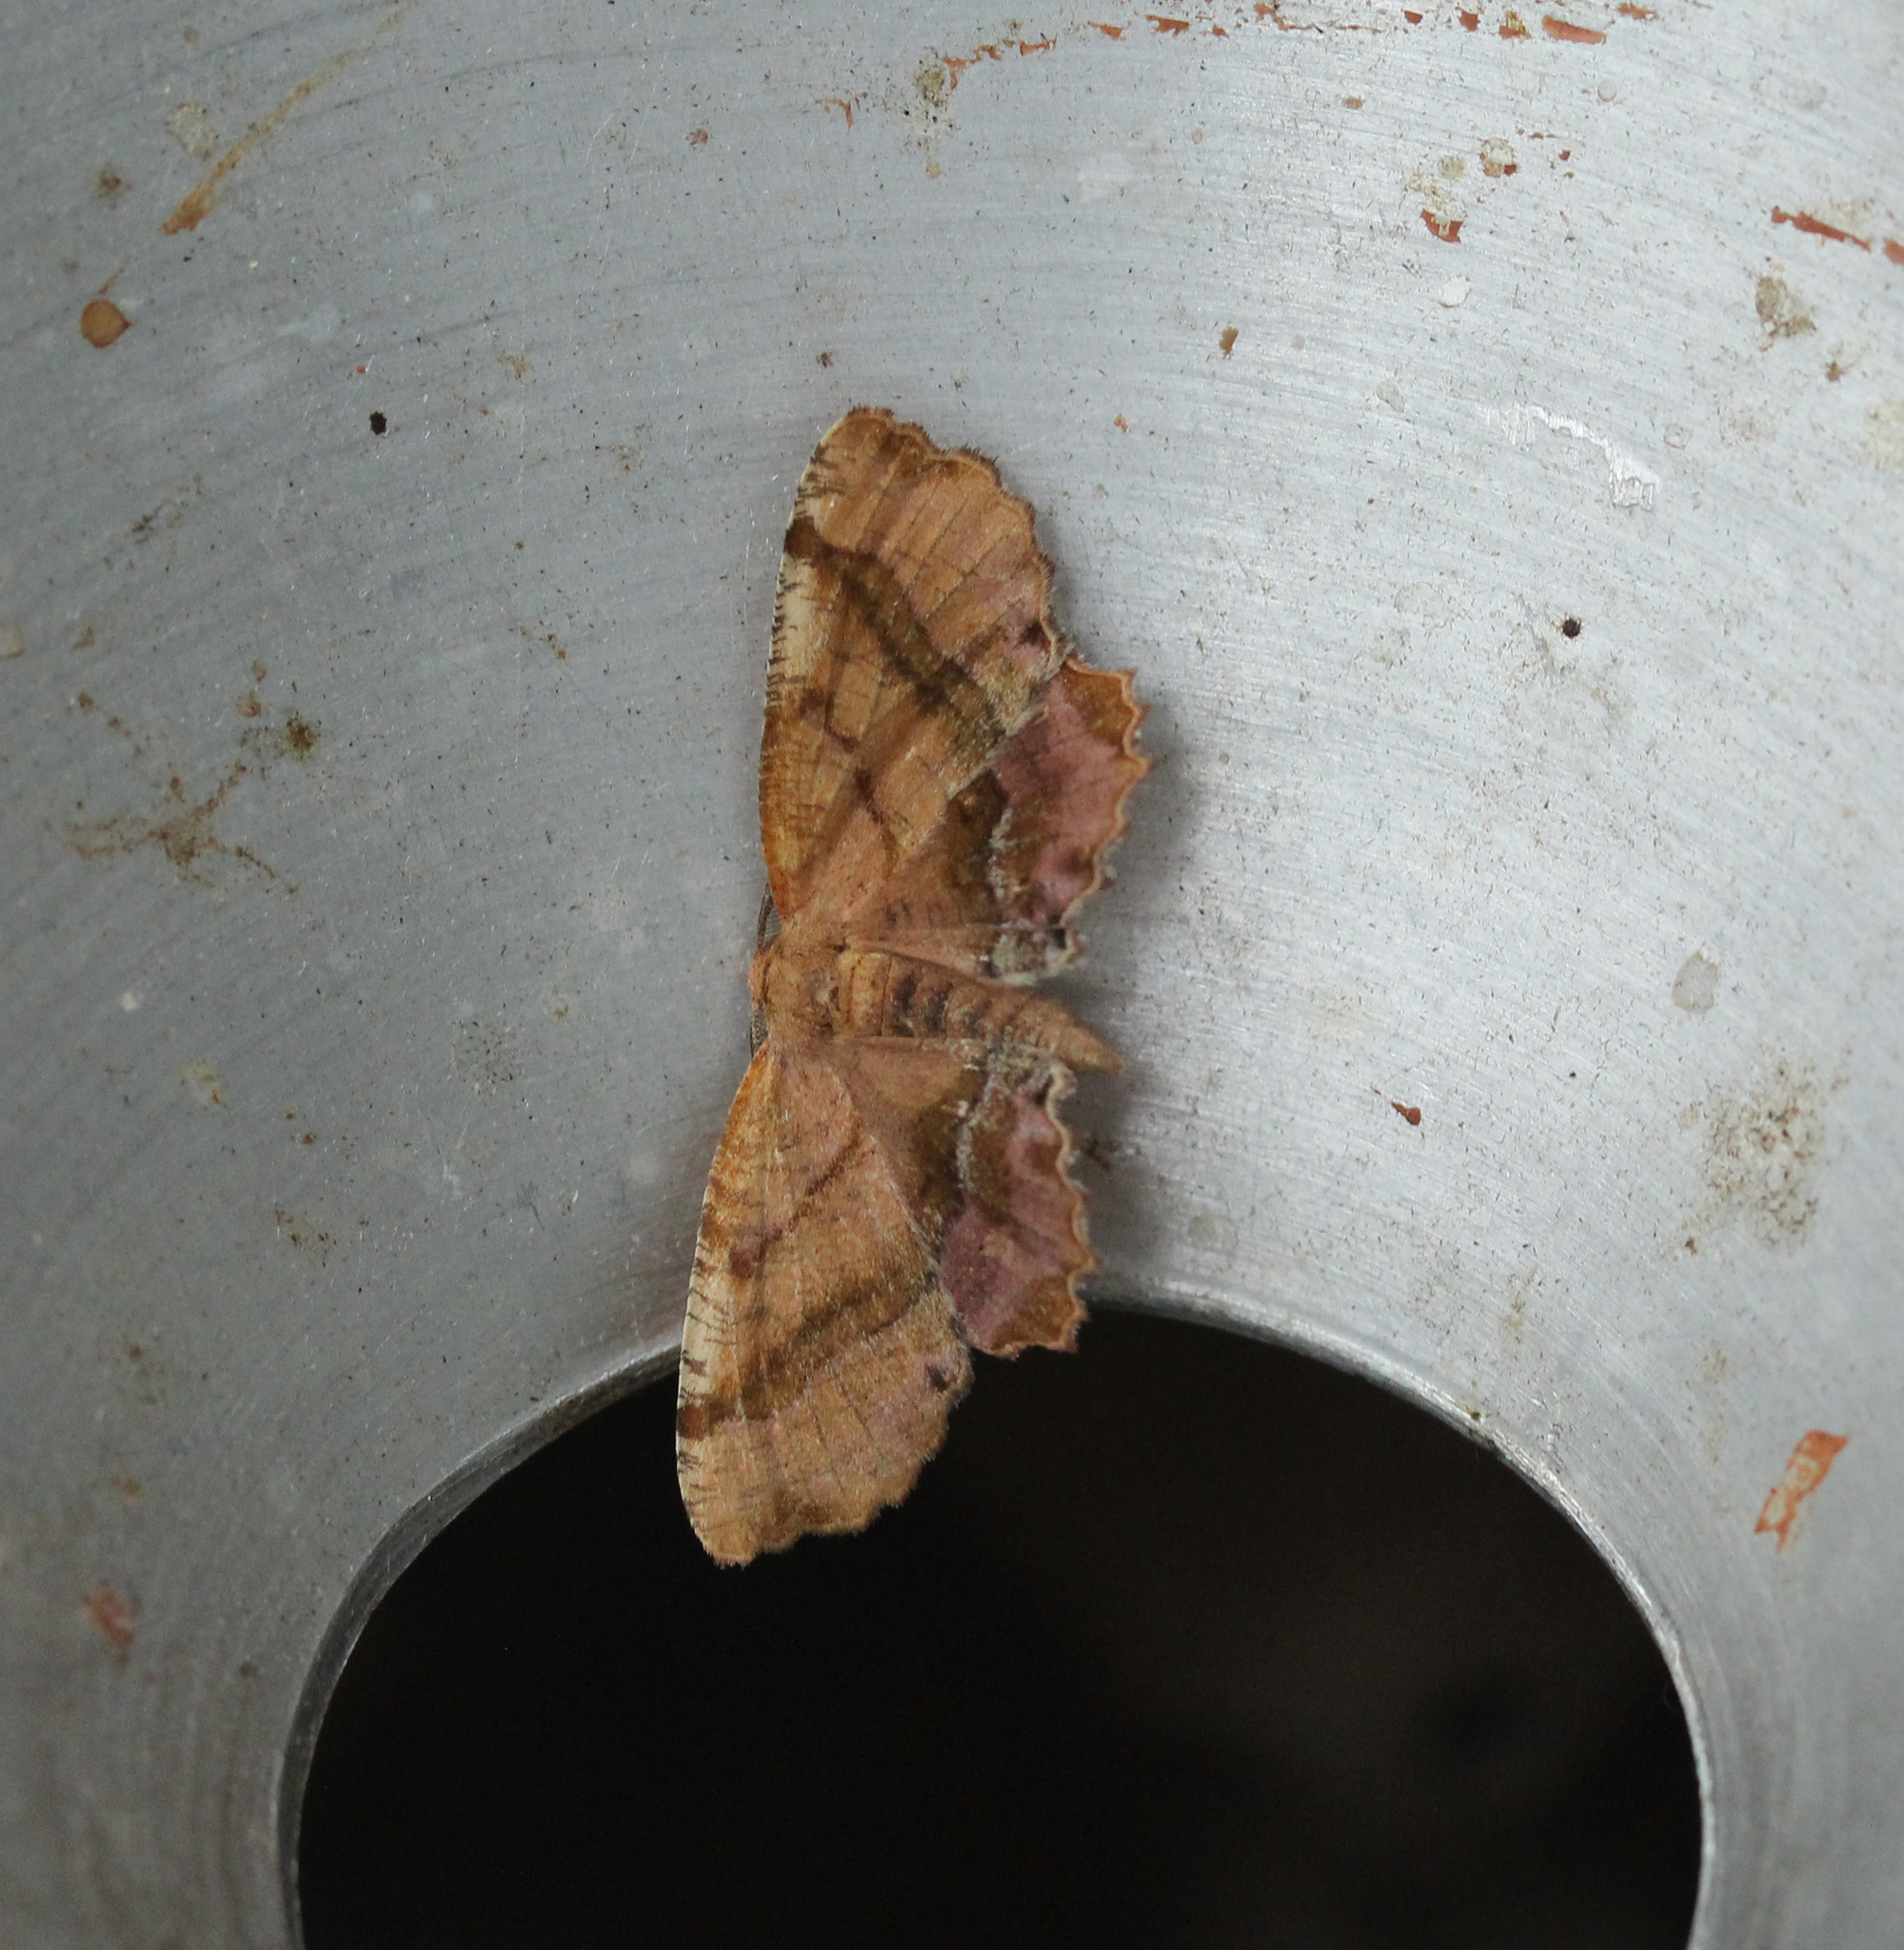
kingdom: Animalia
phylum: Arthropoda
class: Insecta
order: Lepidoptera
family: Geometridae
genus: Cepphis
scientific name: Cepphis armataria
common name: Scallop moth
